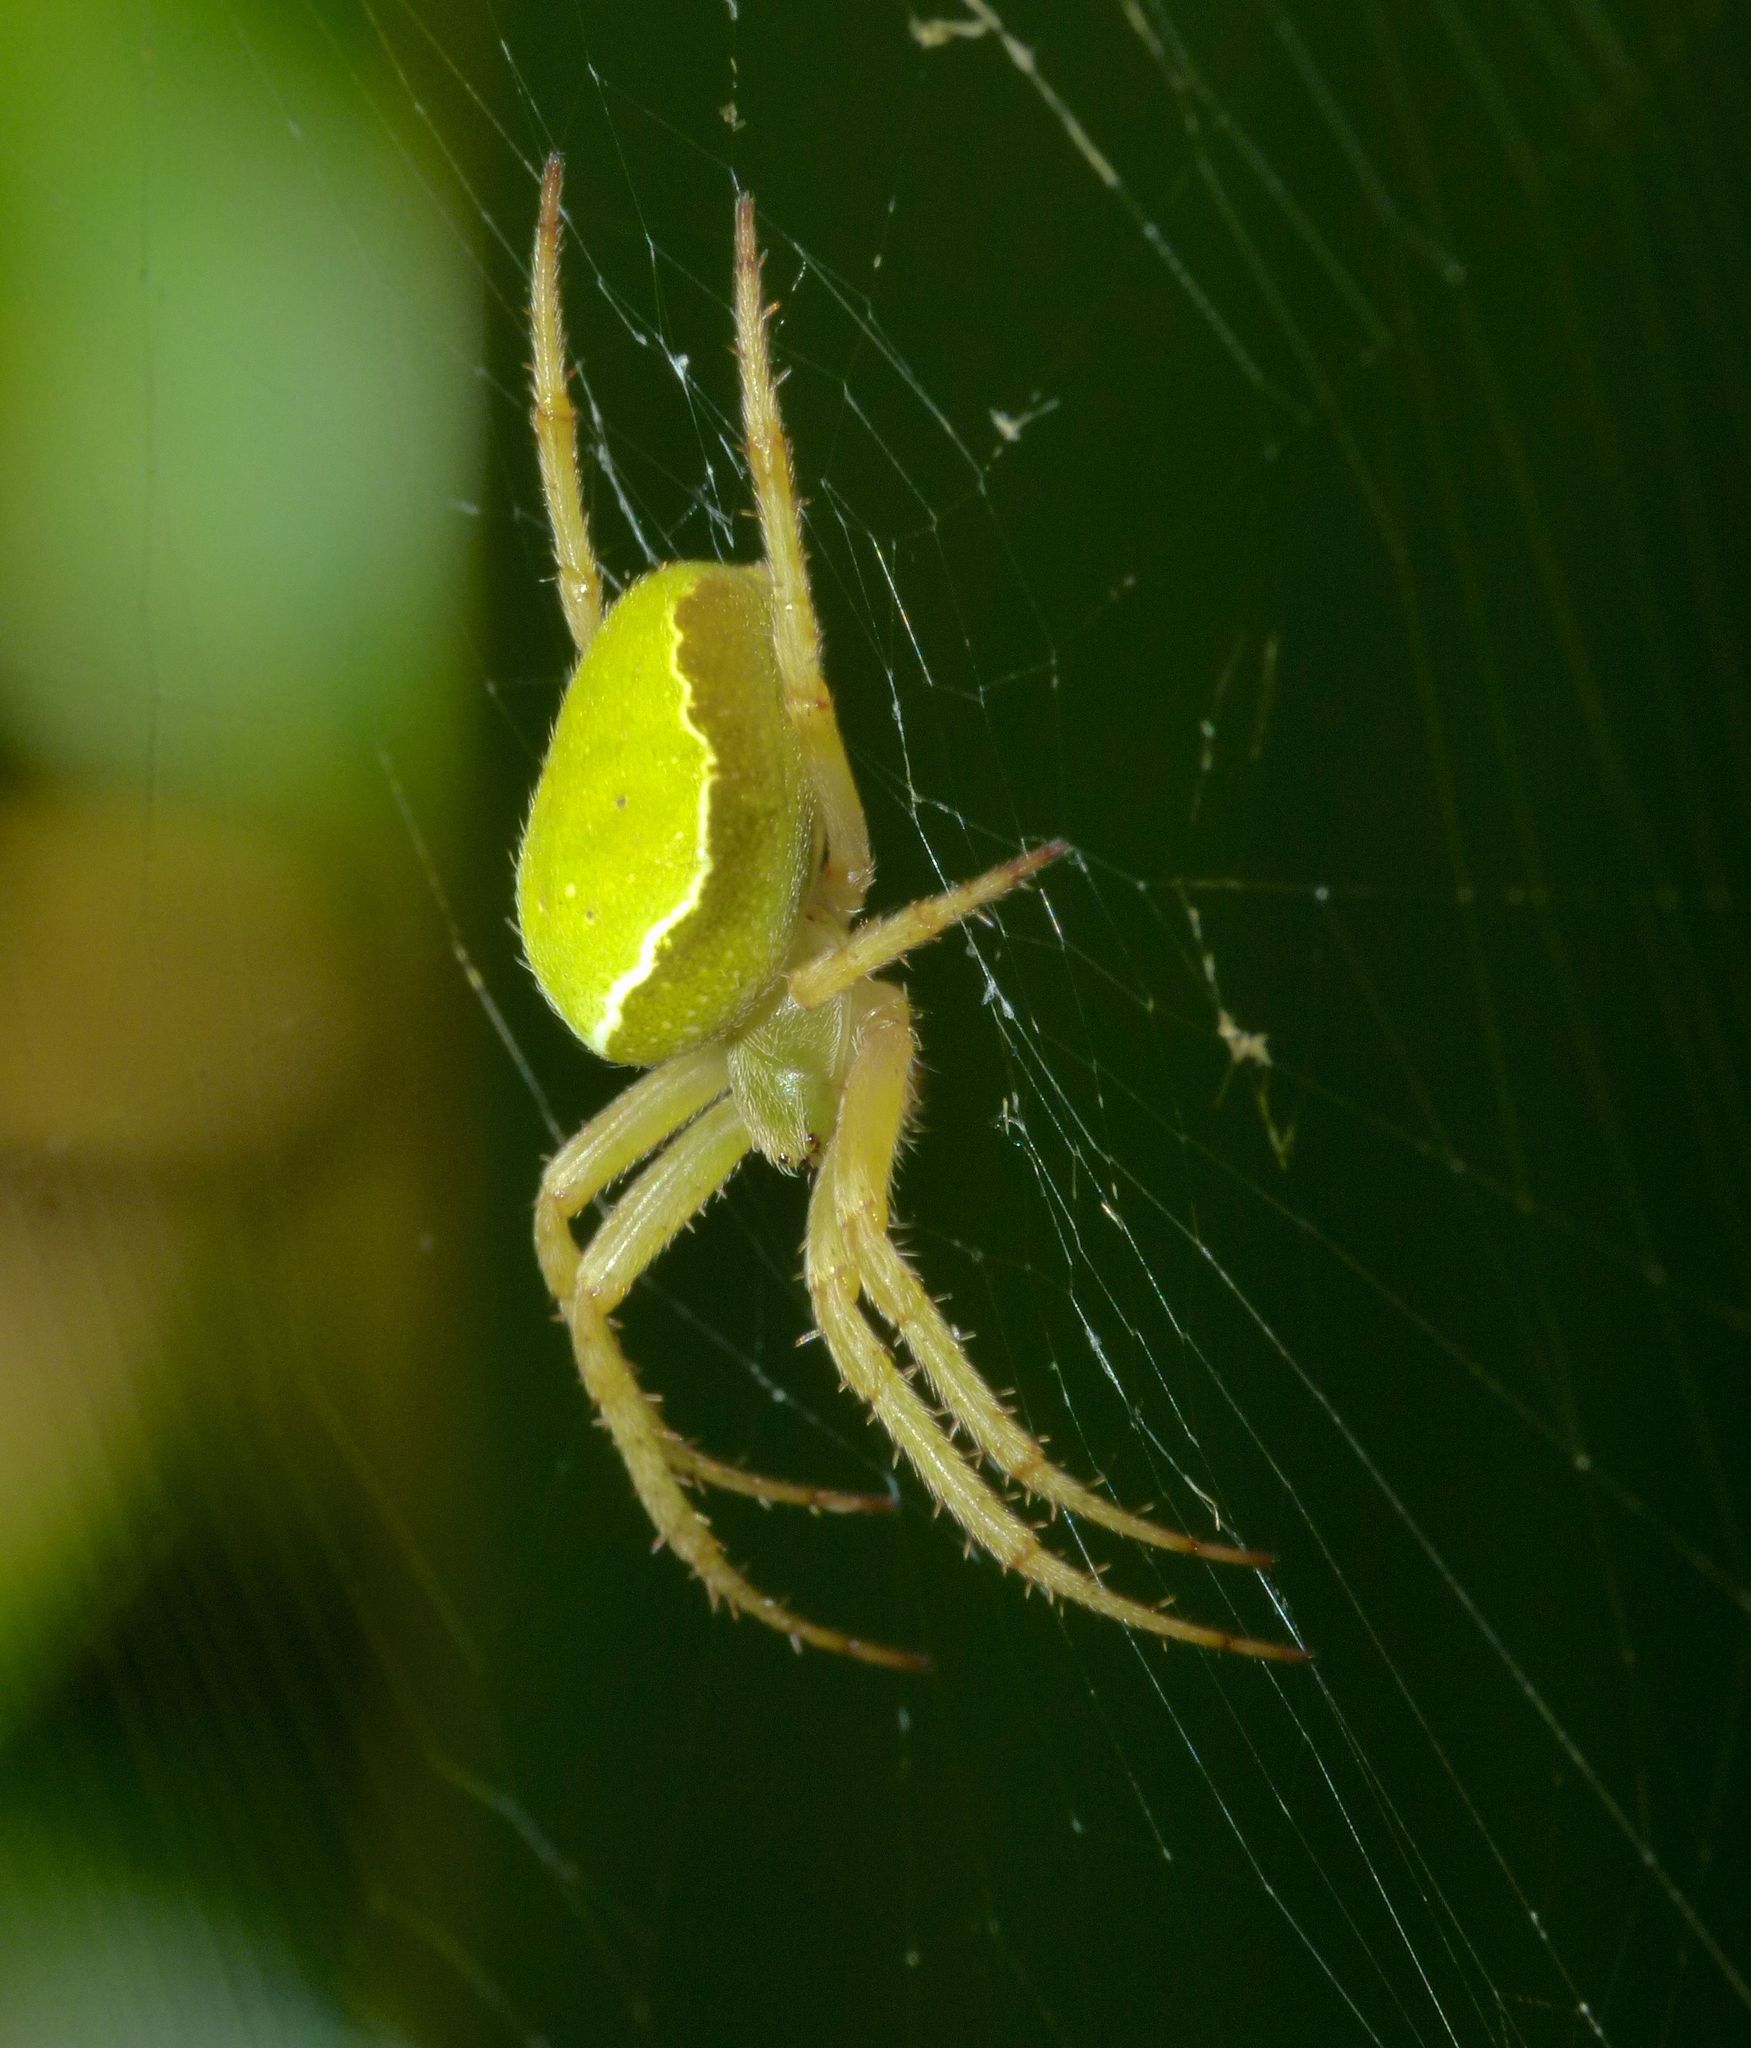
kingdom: Animalia
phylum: Arthropoda
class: Arachnida
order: Araneae
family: Araneidae
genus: Colaranea
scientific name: Colaranea viriditas
